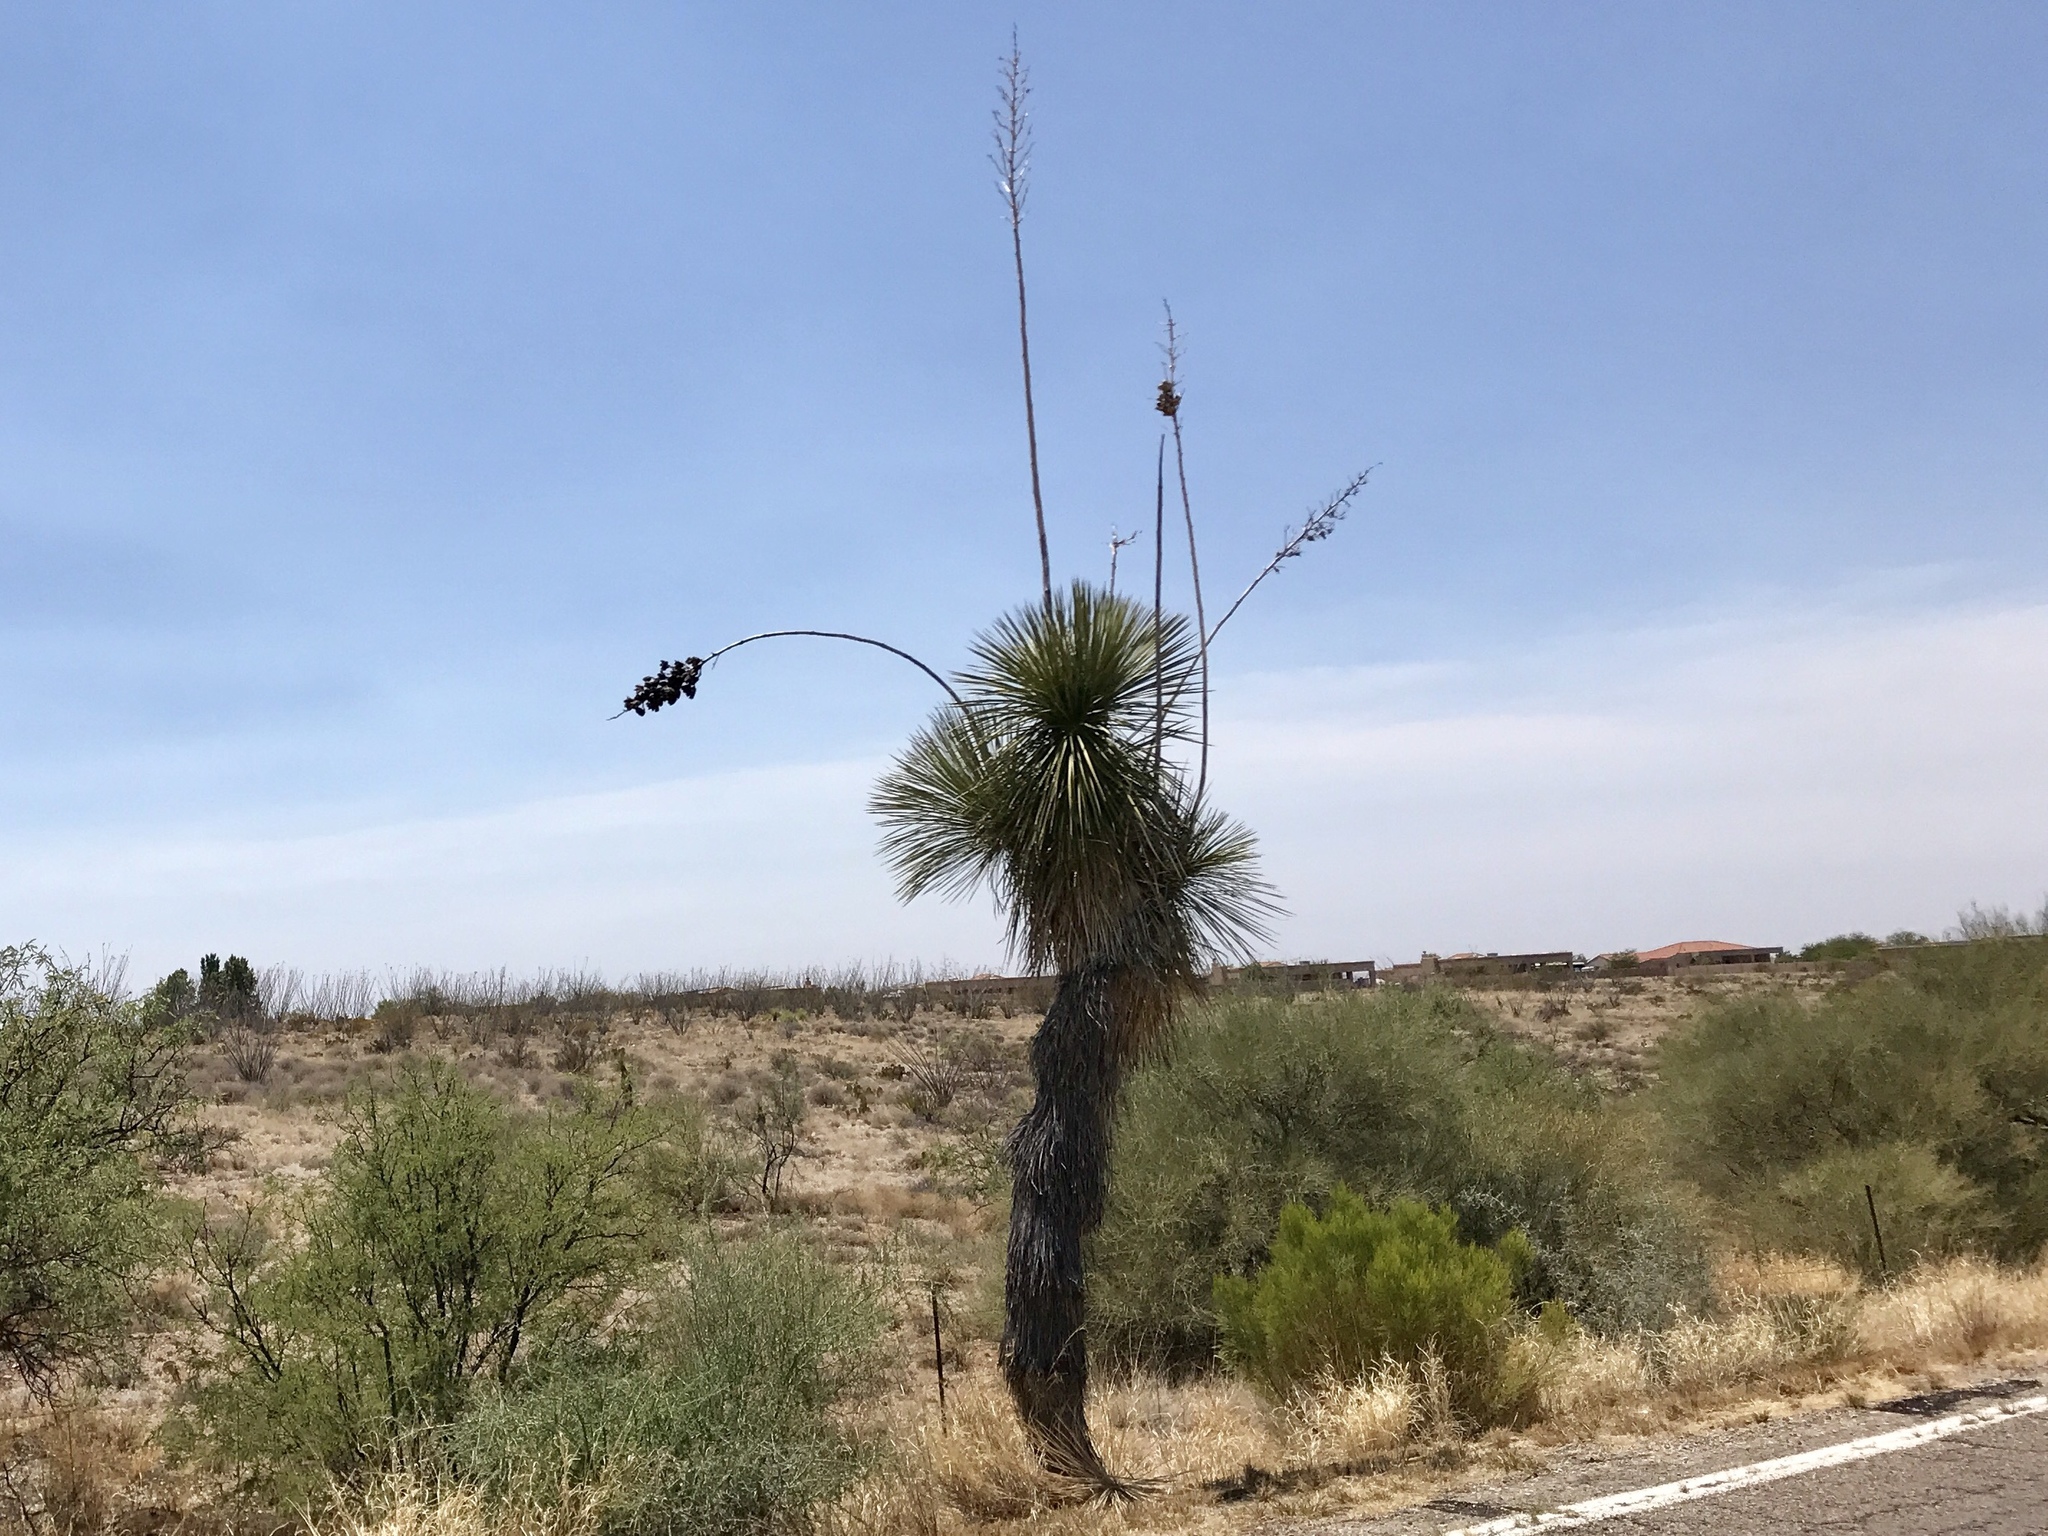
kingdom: Plantae
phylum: Tracheophyta
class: Liliopsida
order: Asparagales
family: Asparagaceae
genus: Yucca
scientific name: Yucca elata
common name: Palmella
